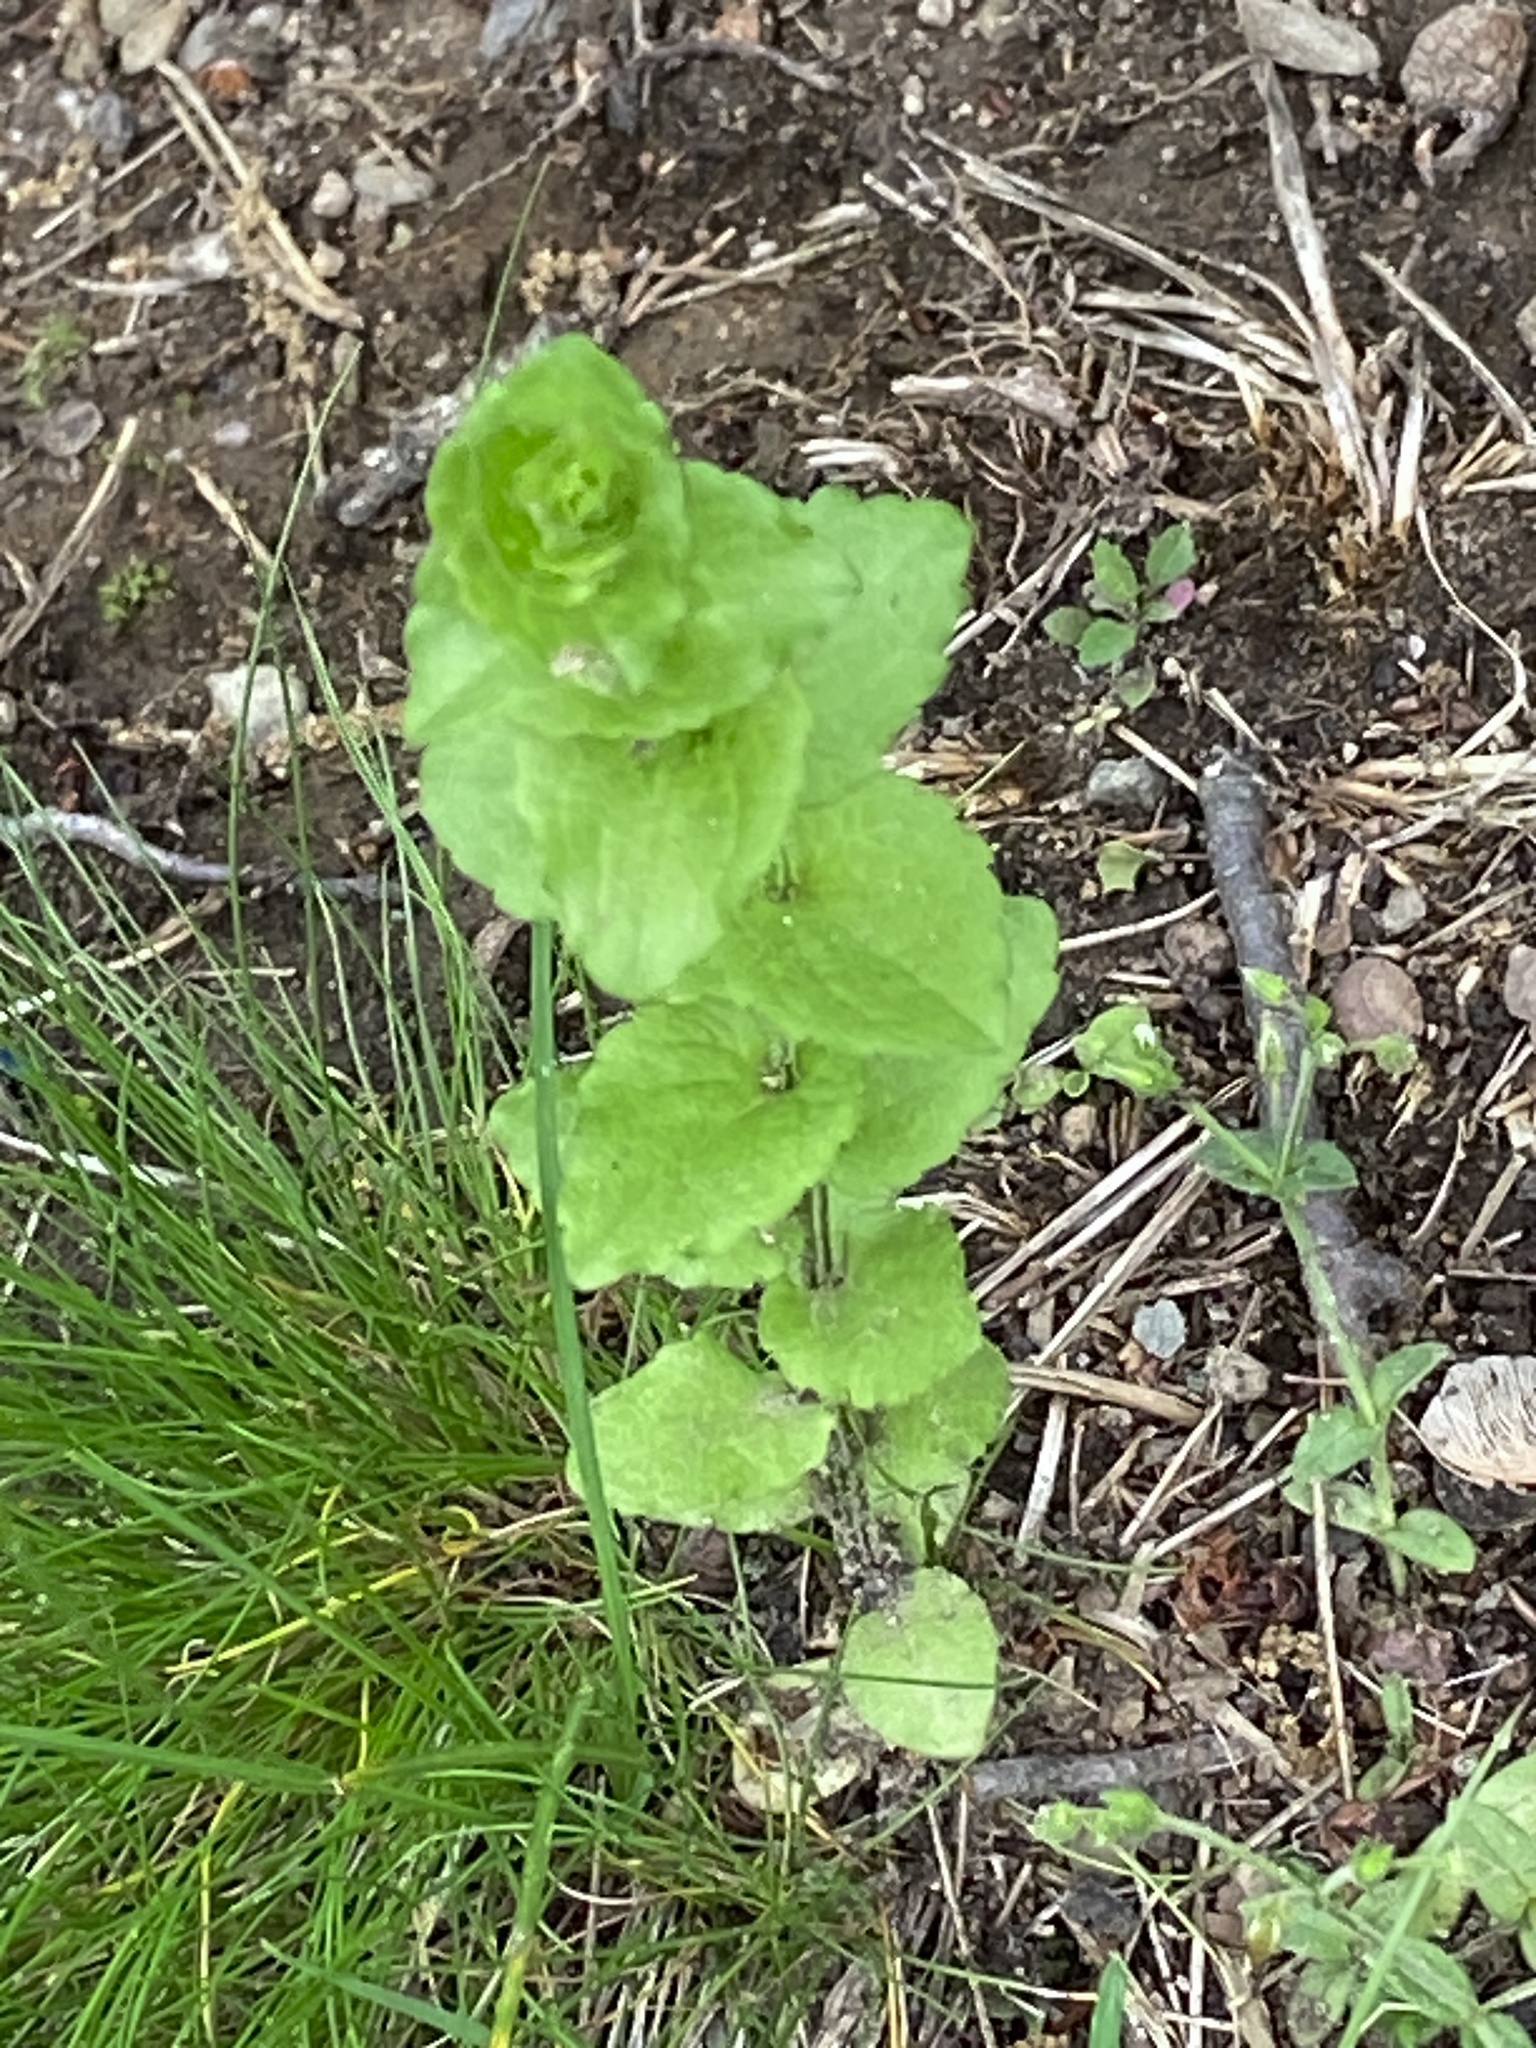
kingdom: Plantae
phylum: Tracheophyta
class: Magnoliopsida
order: Asterales
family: Campanulaceae
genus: Triodanis
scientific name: Triodanis perfoliata
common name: Clasping venus' looking-glass
